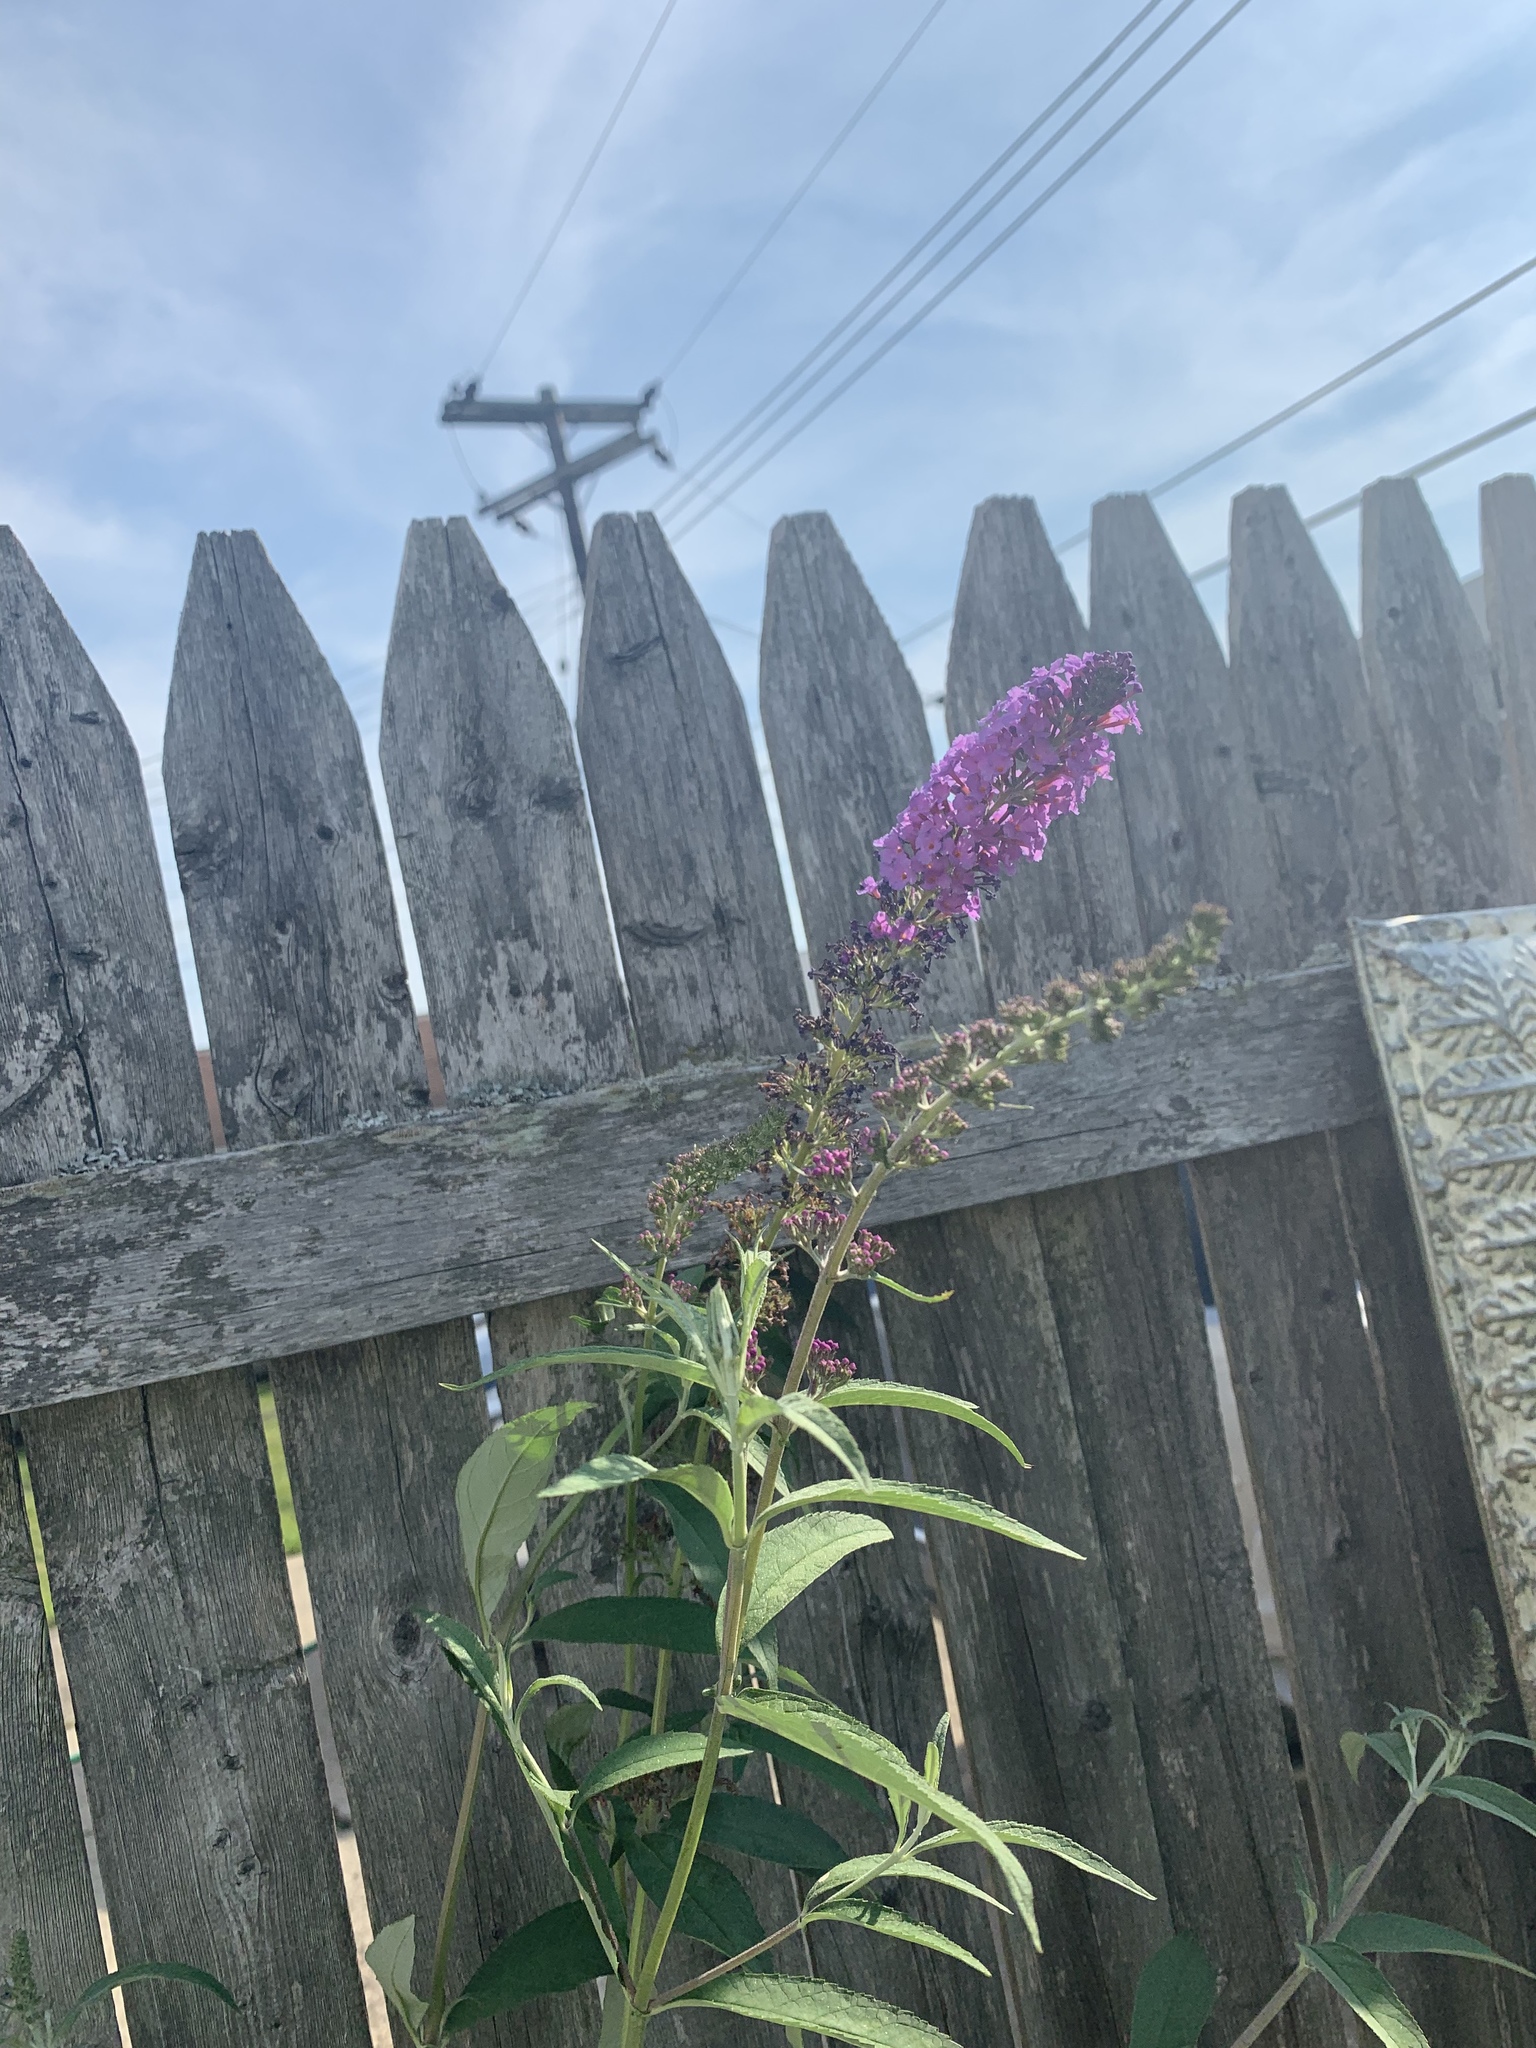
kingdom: Plantae
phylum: Tracheophyta
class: Magnoliopsida
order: Myrtales
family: Lythraceae
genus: Lythrum
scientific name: Lythrum salicaria
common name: Purple loosestrife
